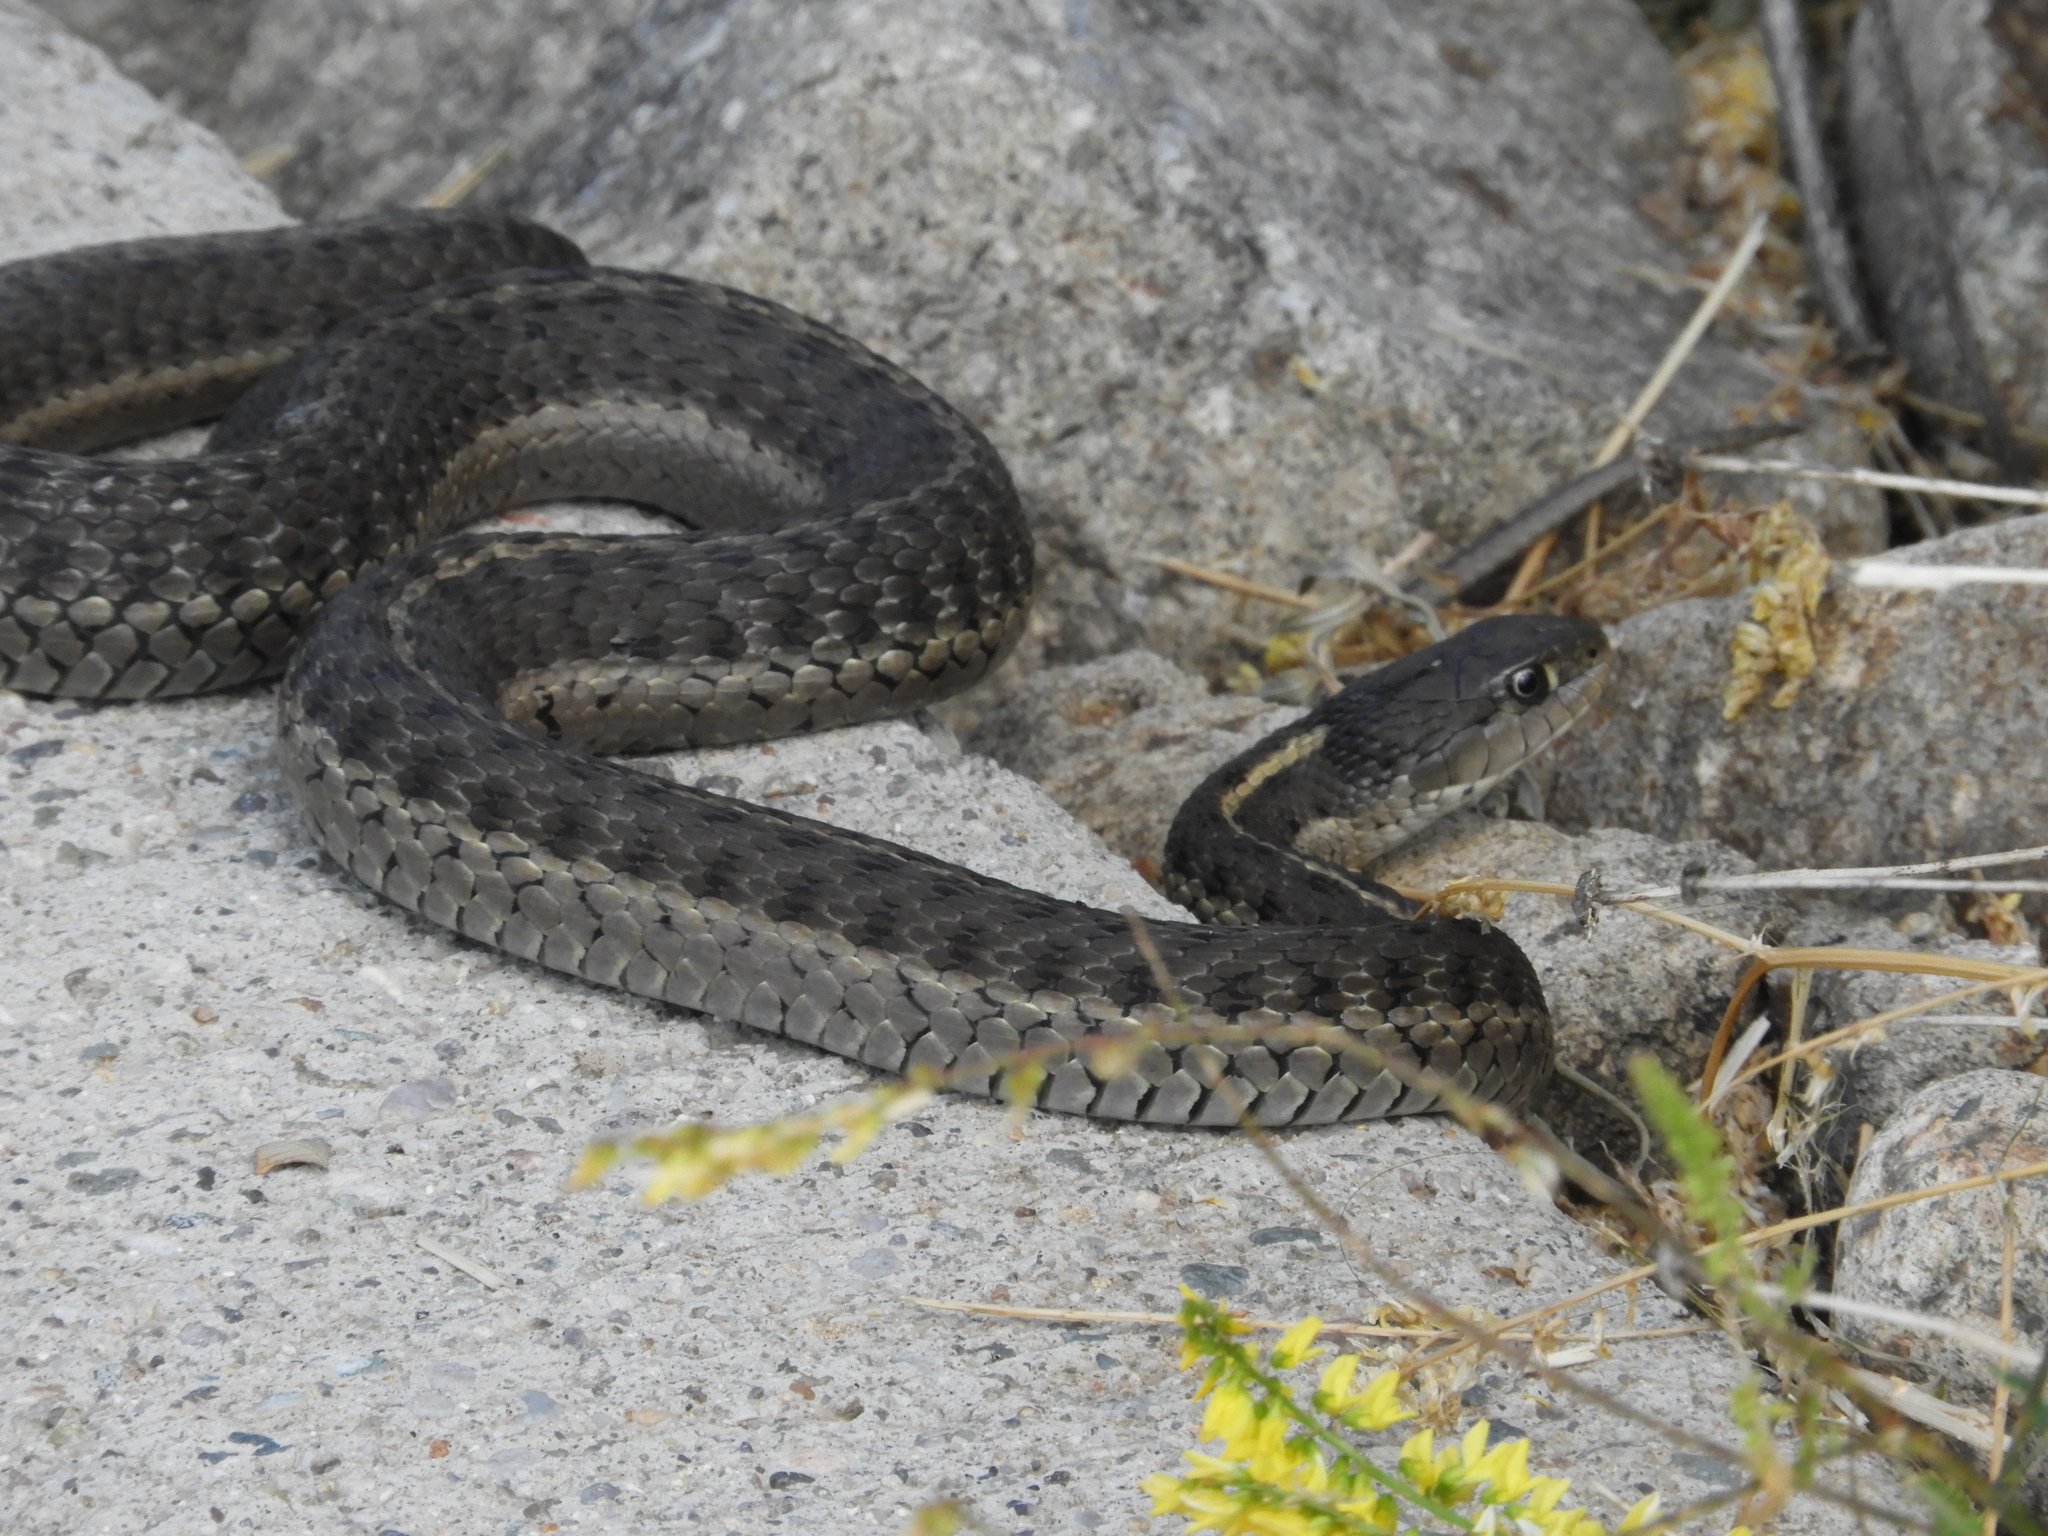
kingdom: Animalia
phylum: Chordata
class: Squamata
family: Colubridae
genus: Thamnophis
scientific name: Thamnophis elegans
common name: Western terrestrial garter snake
